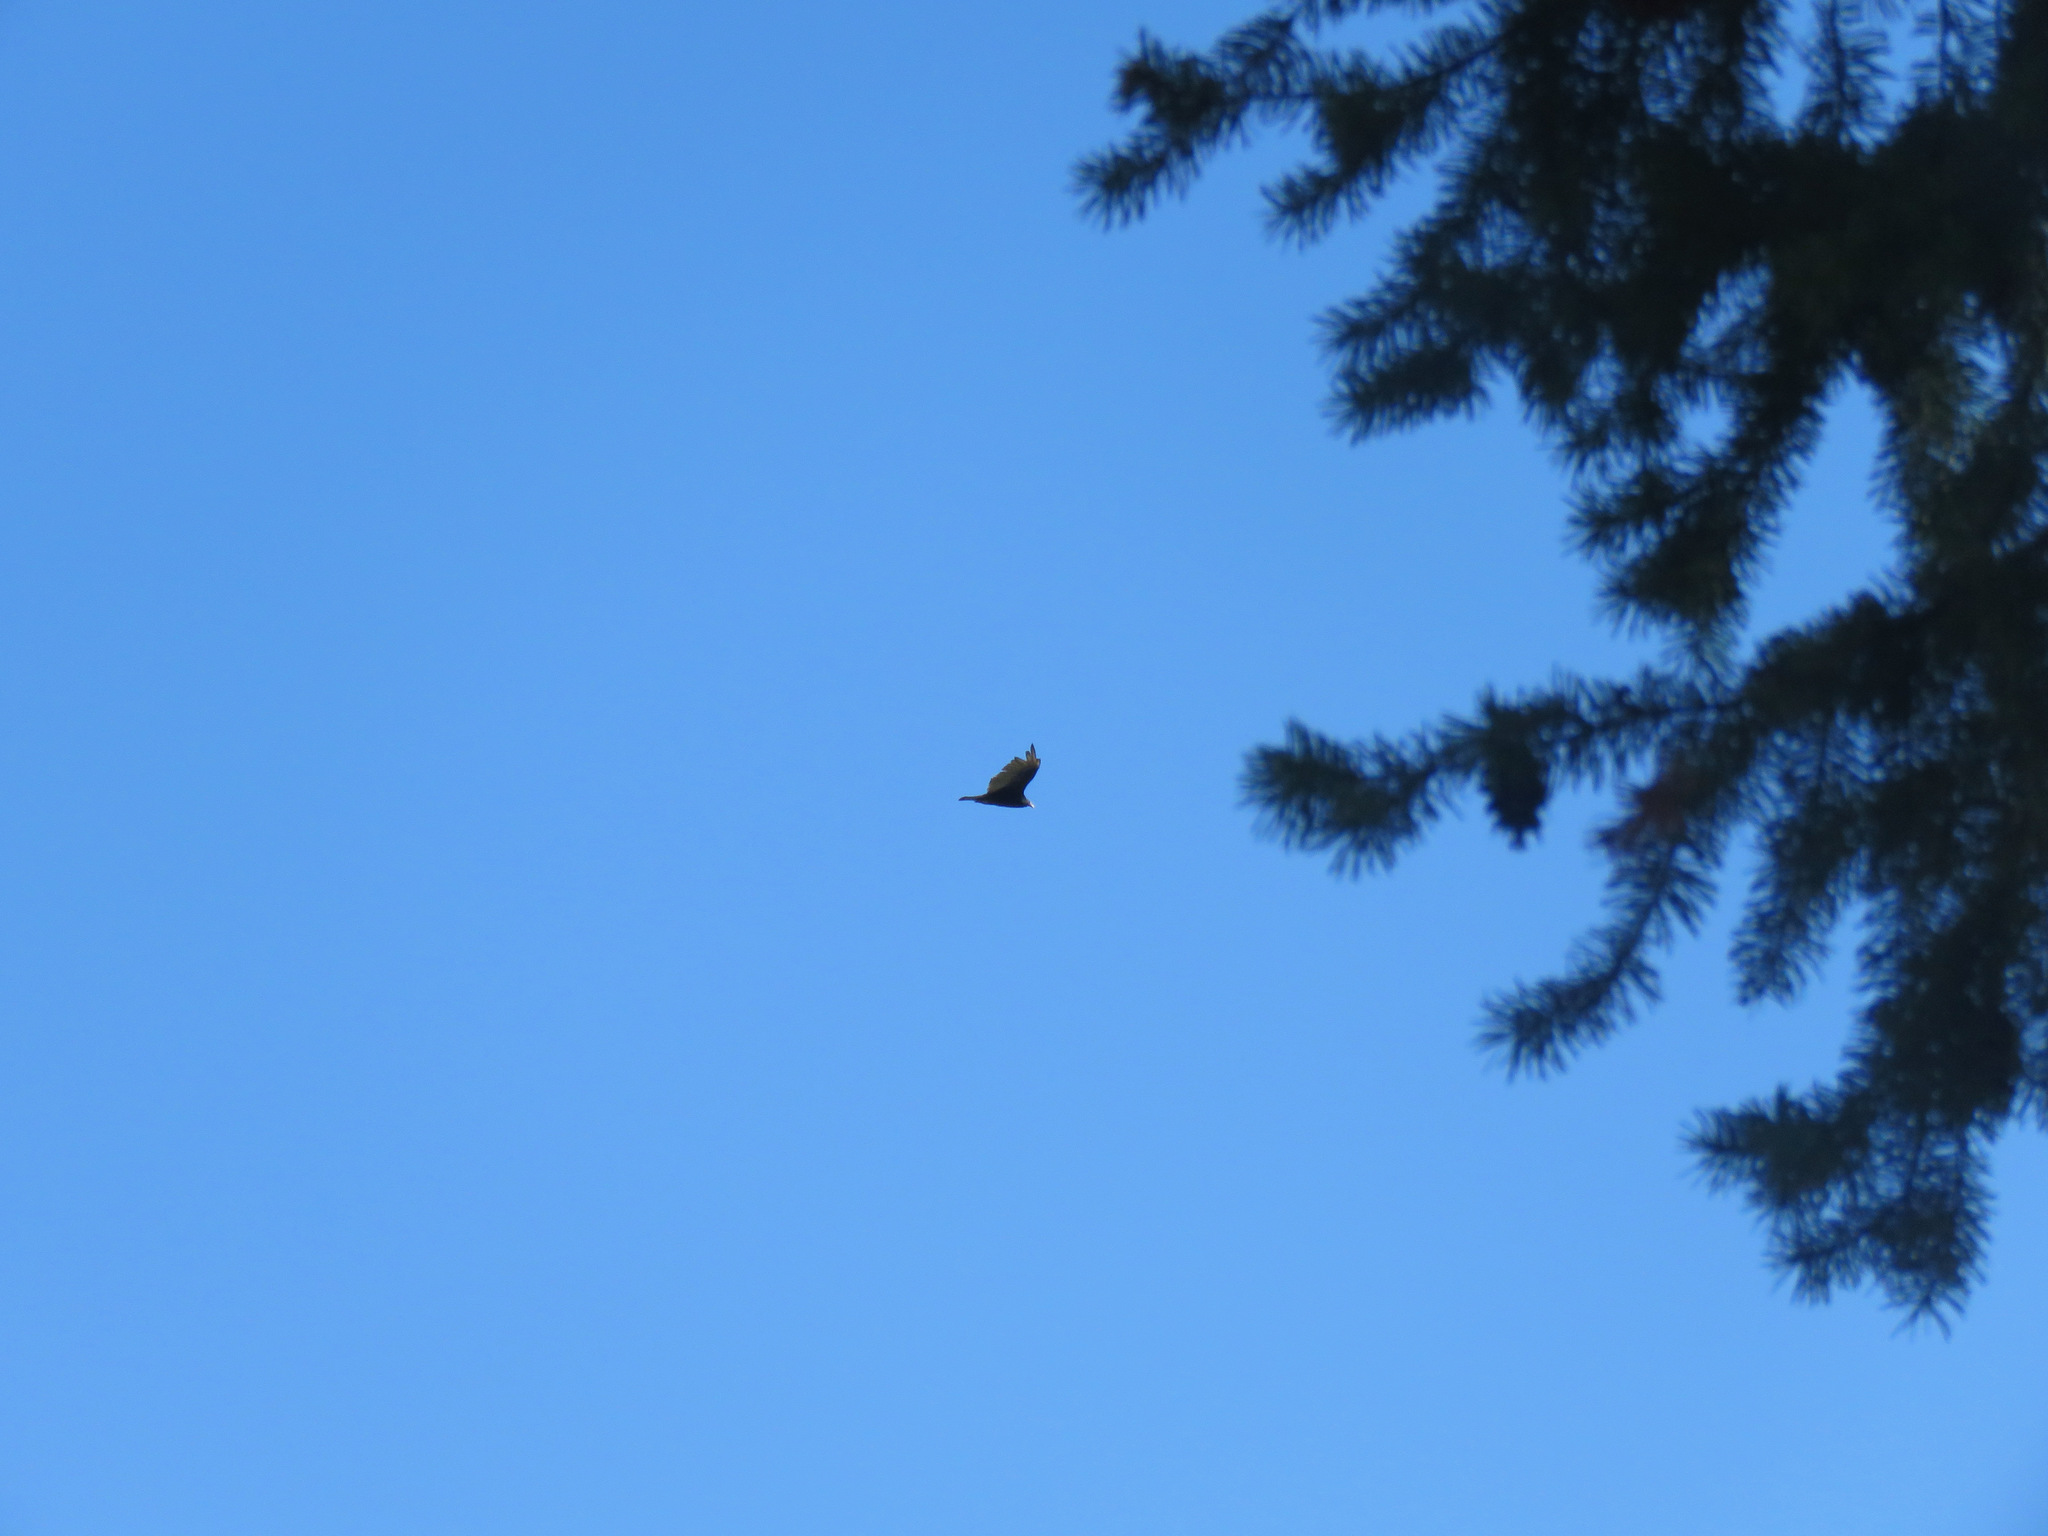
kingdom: Animalia
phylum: Chordata
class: Aves
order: Accipitriformes
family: Cathartidae
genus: Cathartes
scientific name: Cathartes aura
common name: Turkey vulture
